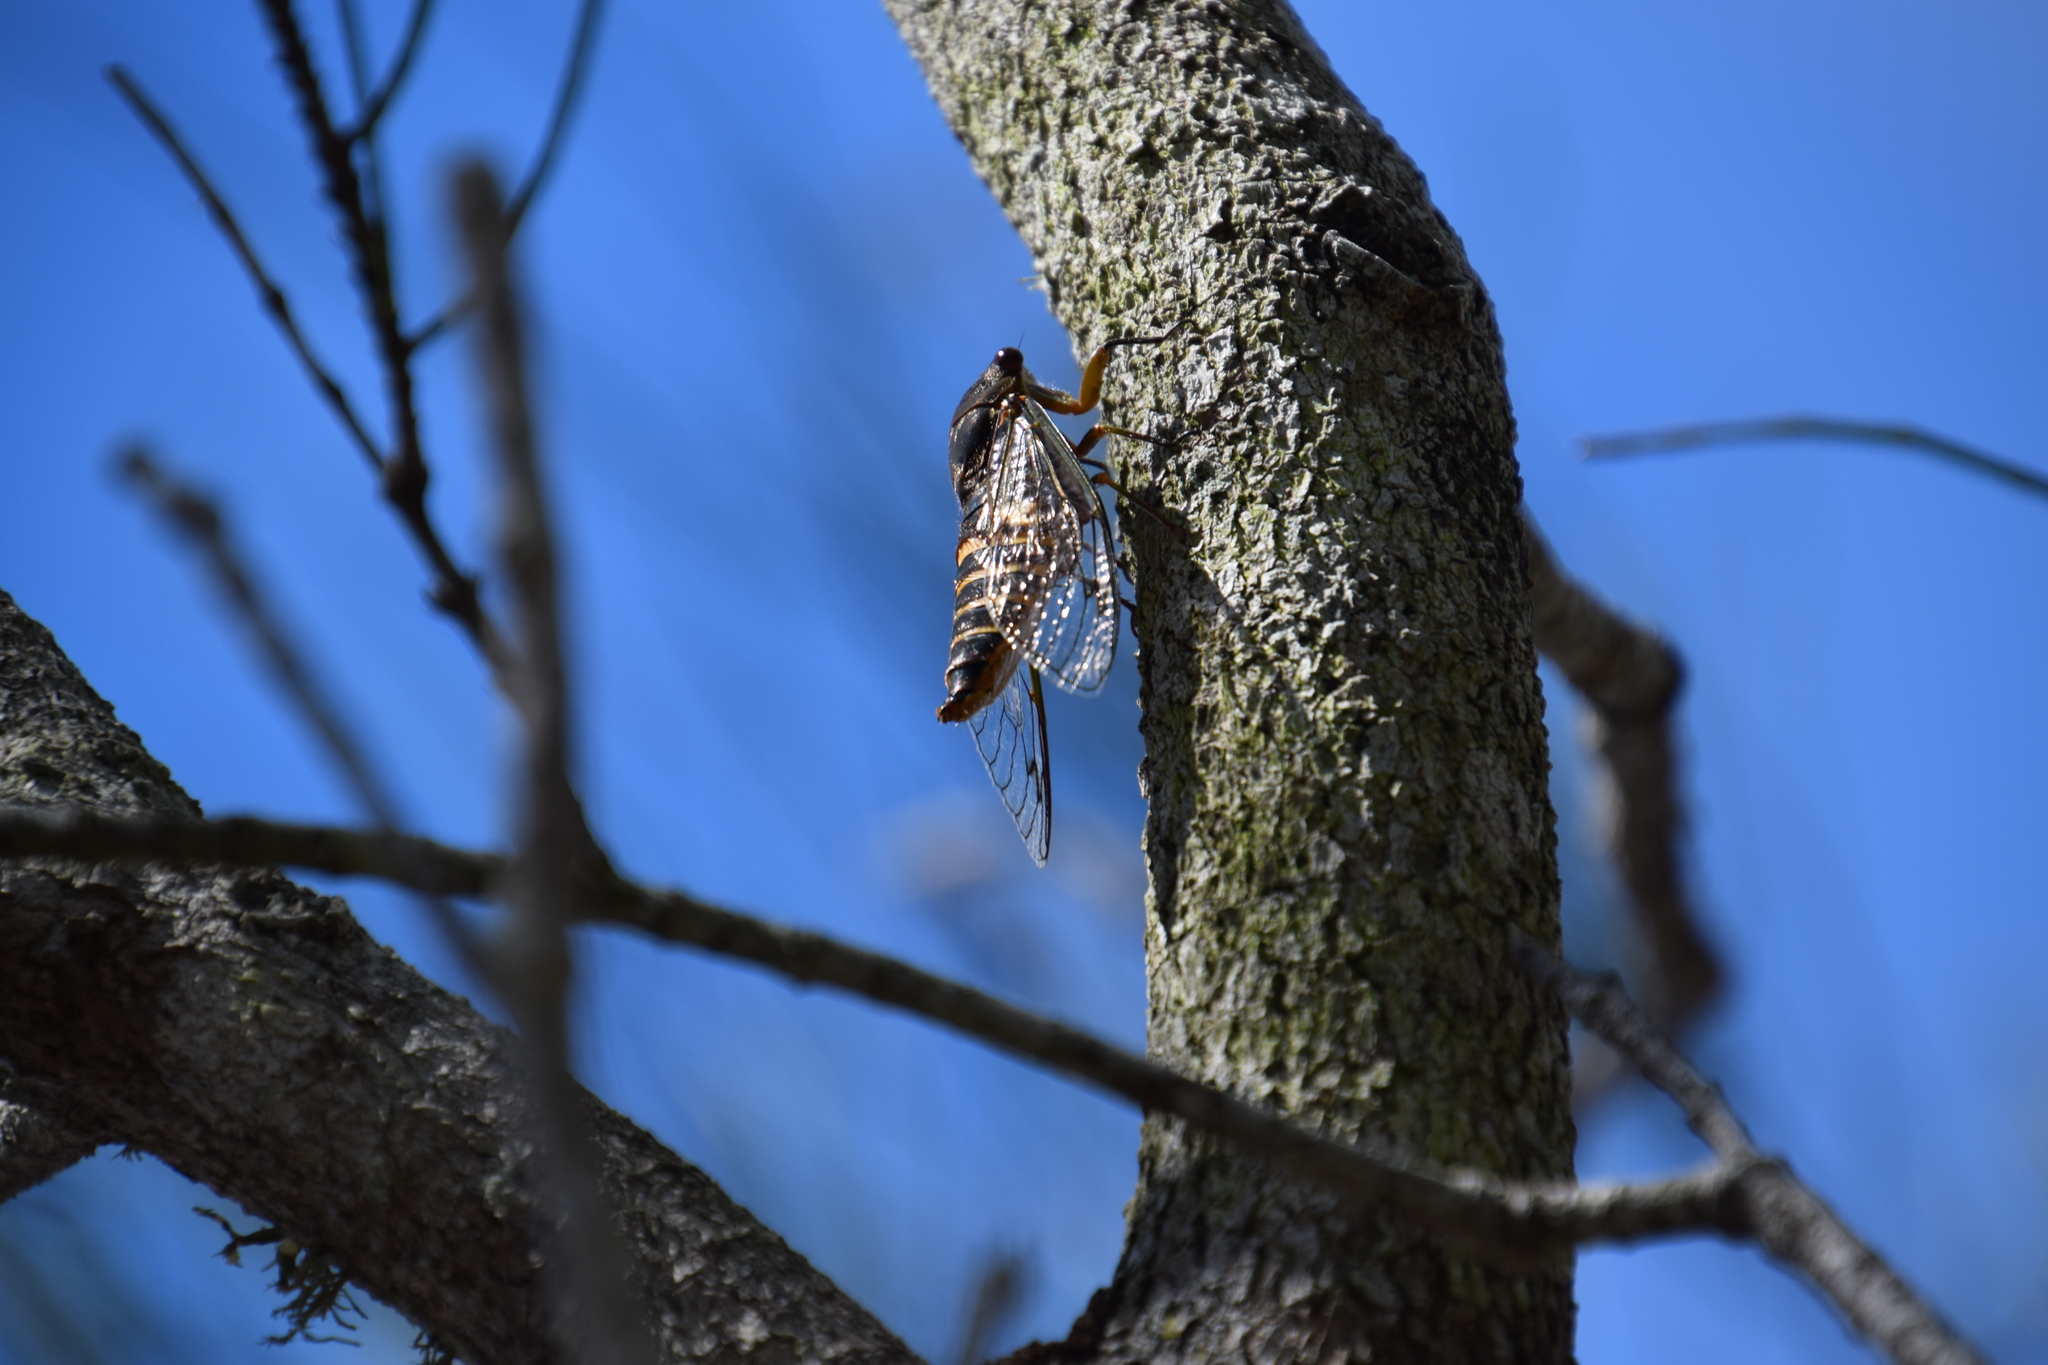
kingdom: Animalia
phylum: Arthropoda
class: Insecta
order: Hemiptera
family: Cicadidae
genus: Psaltoda
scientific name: Psaltoda plaga
